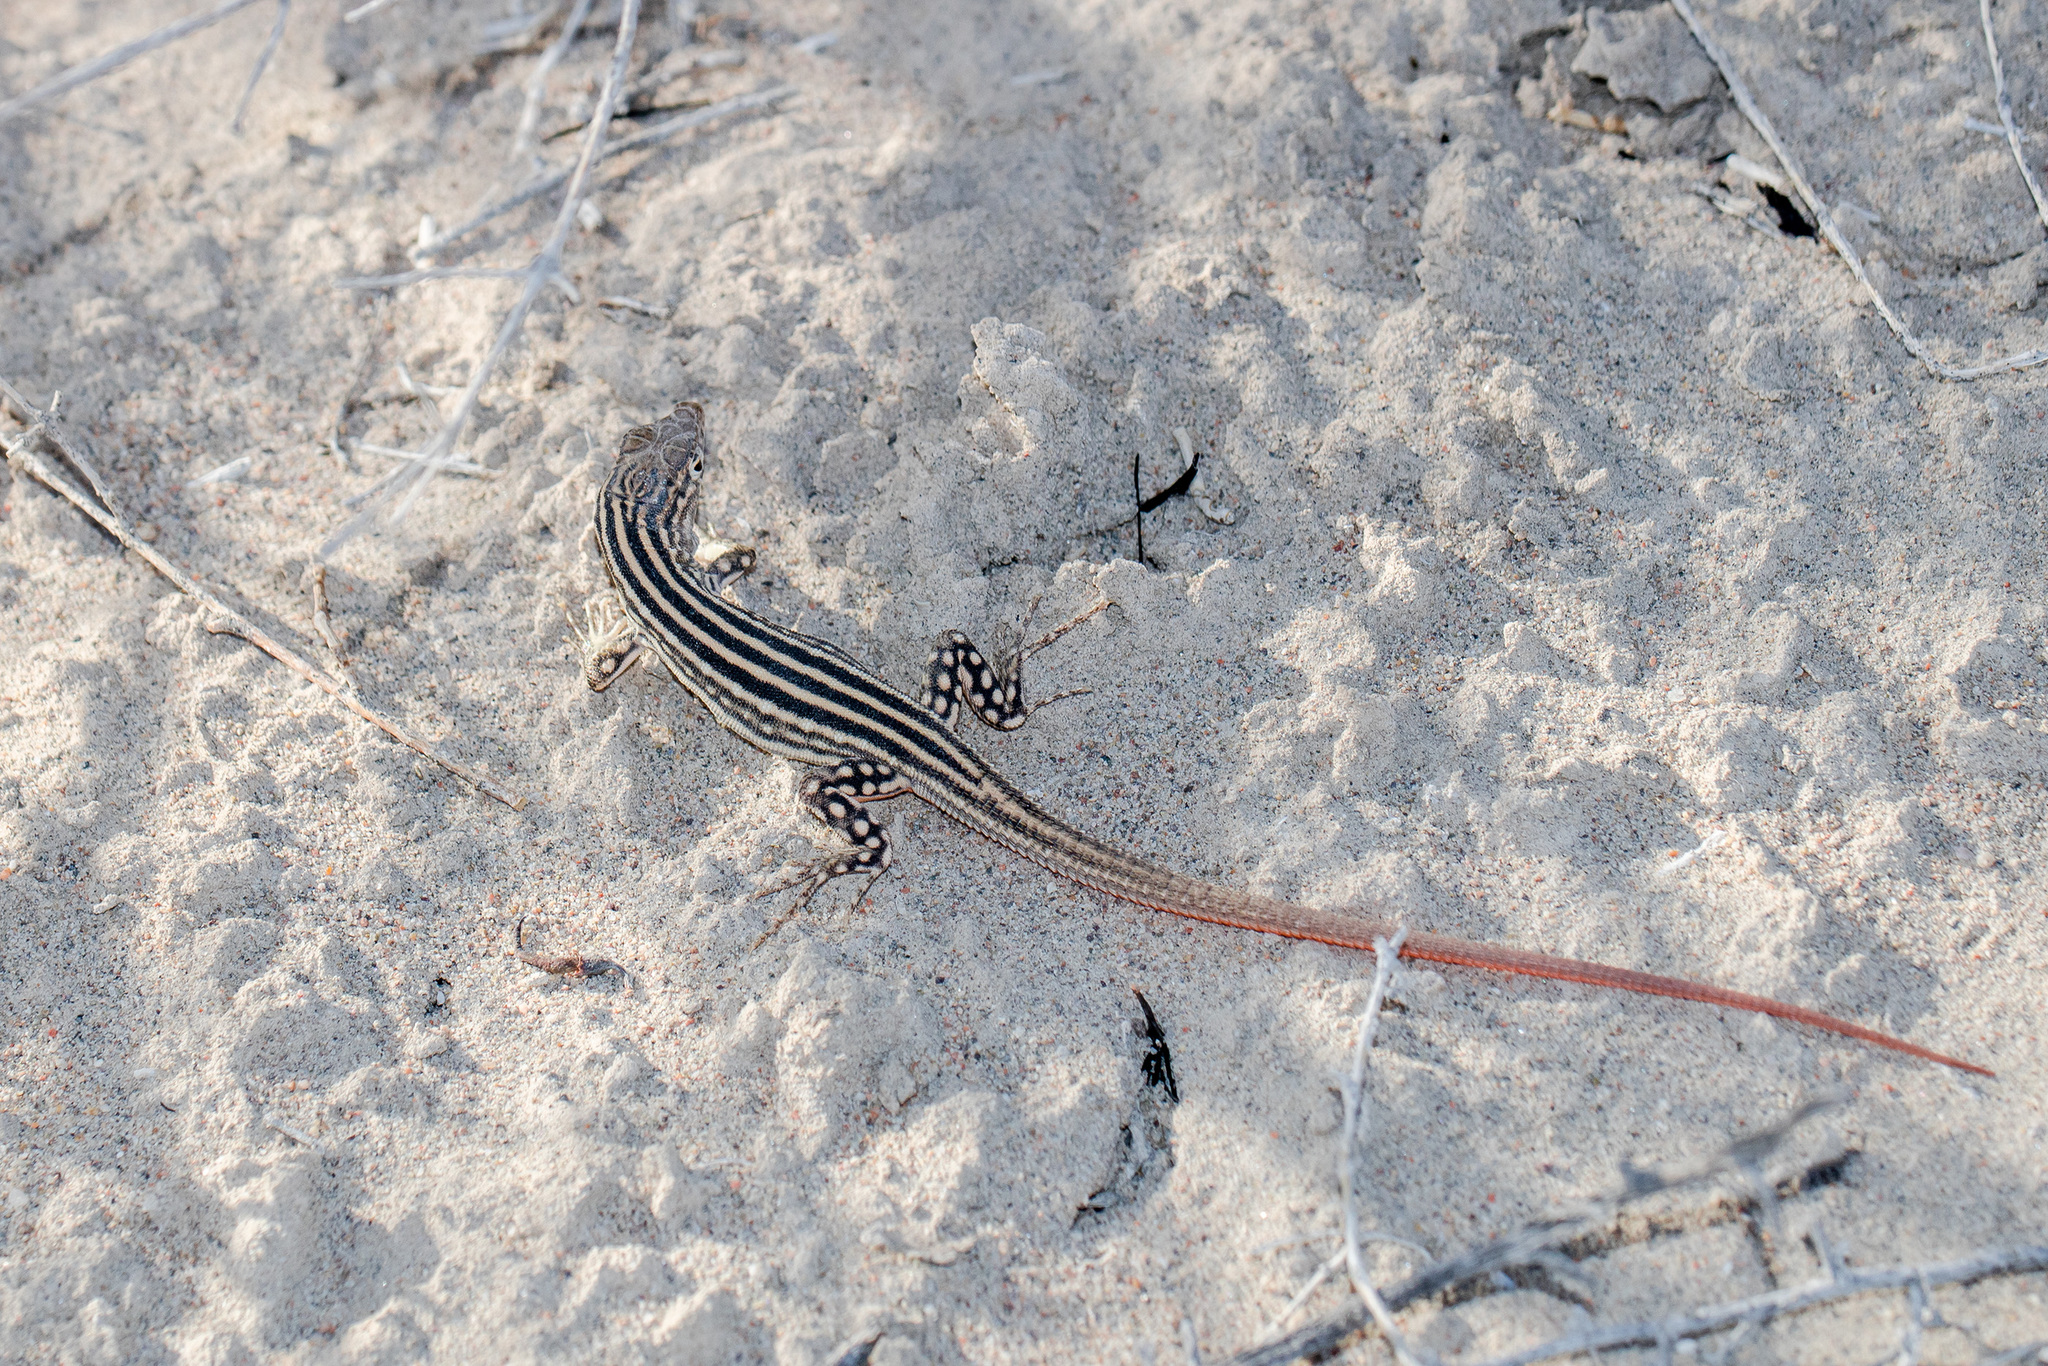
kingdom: Animalia
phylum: Chordata
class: Squamata
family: Lacertidae
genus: Eremias
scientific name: Eremias velox
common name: Central asian racerunner
